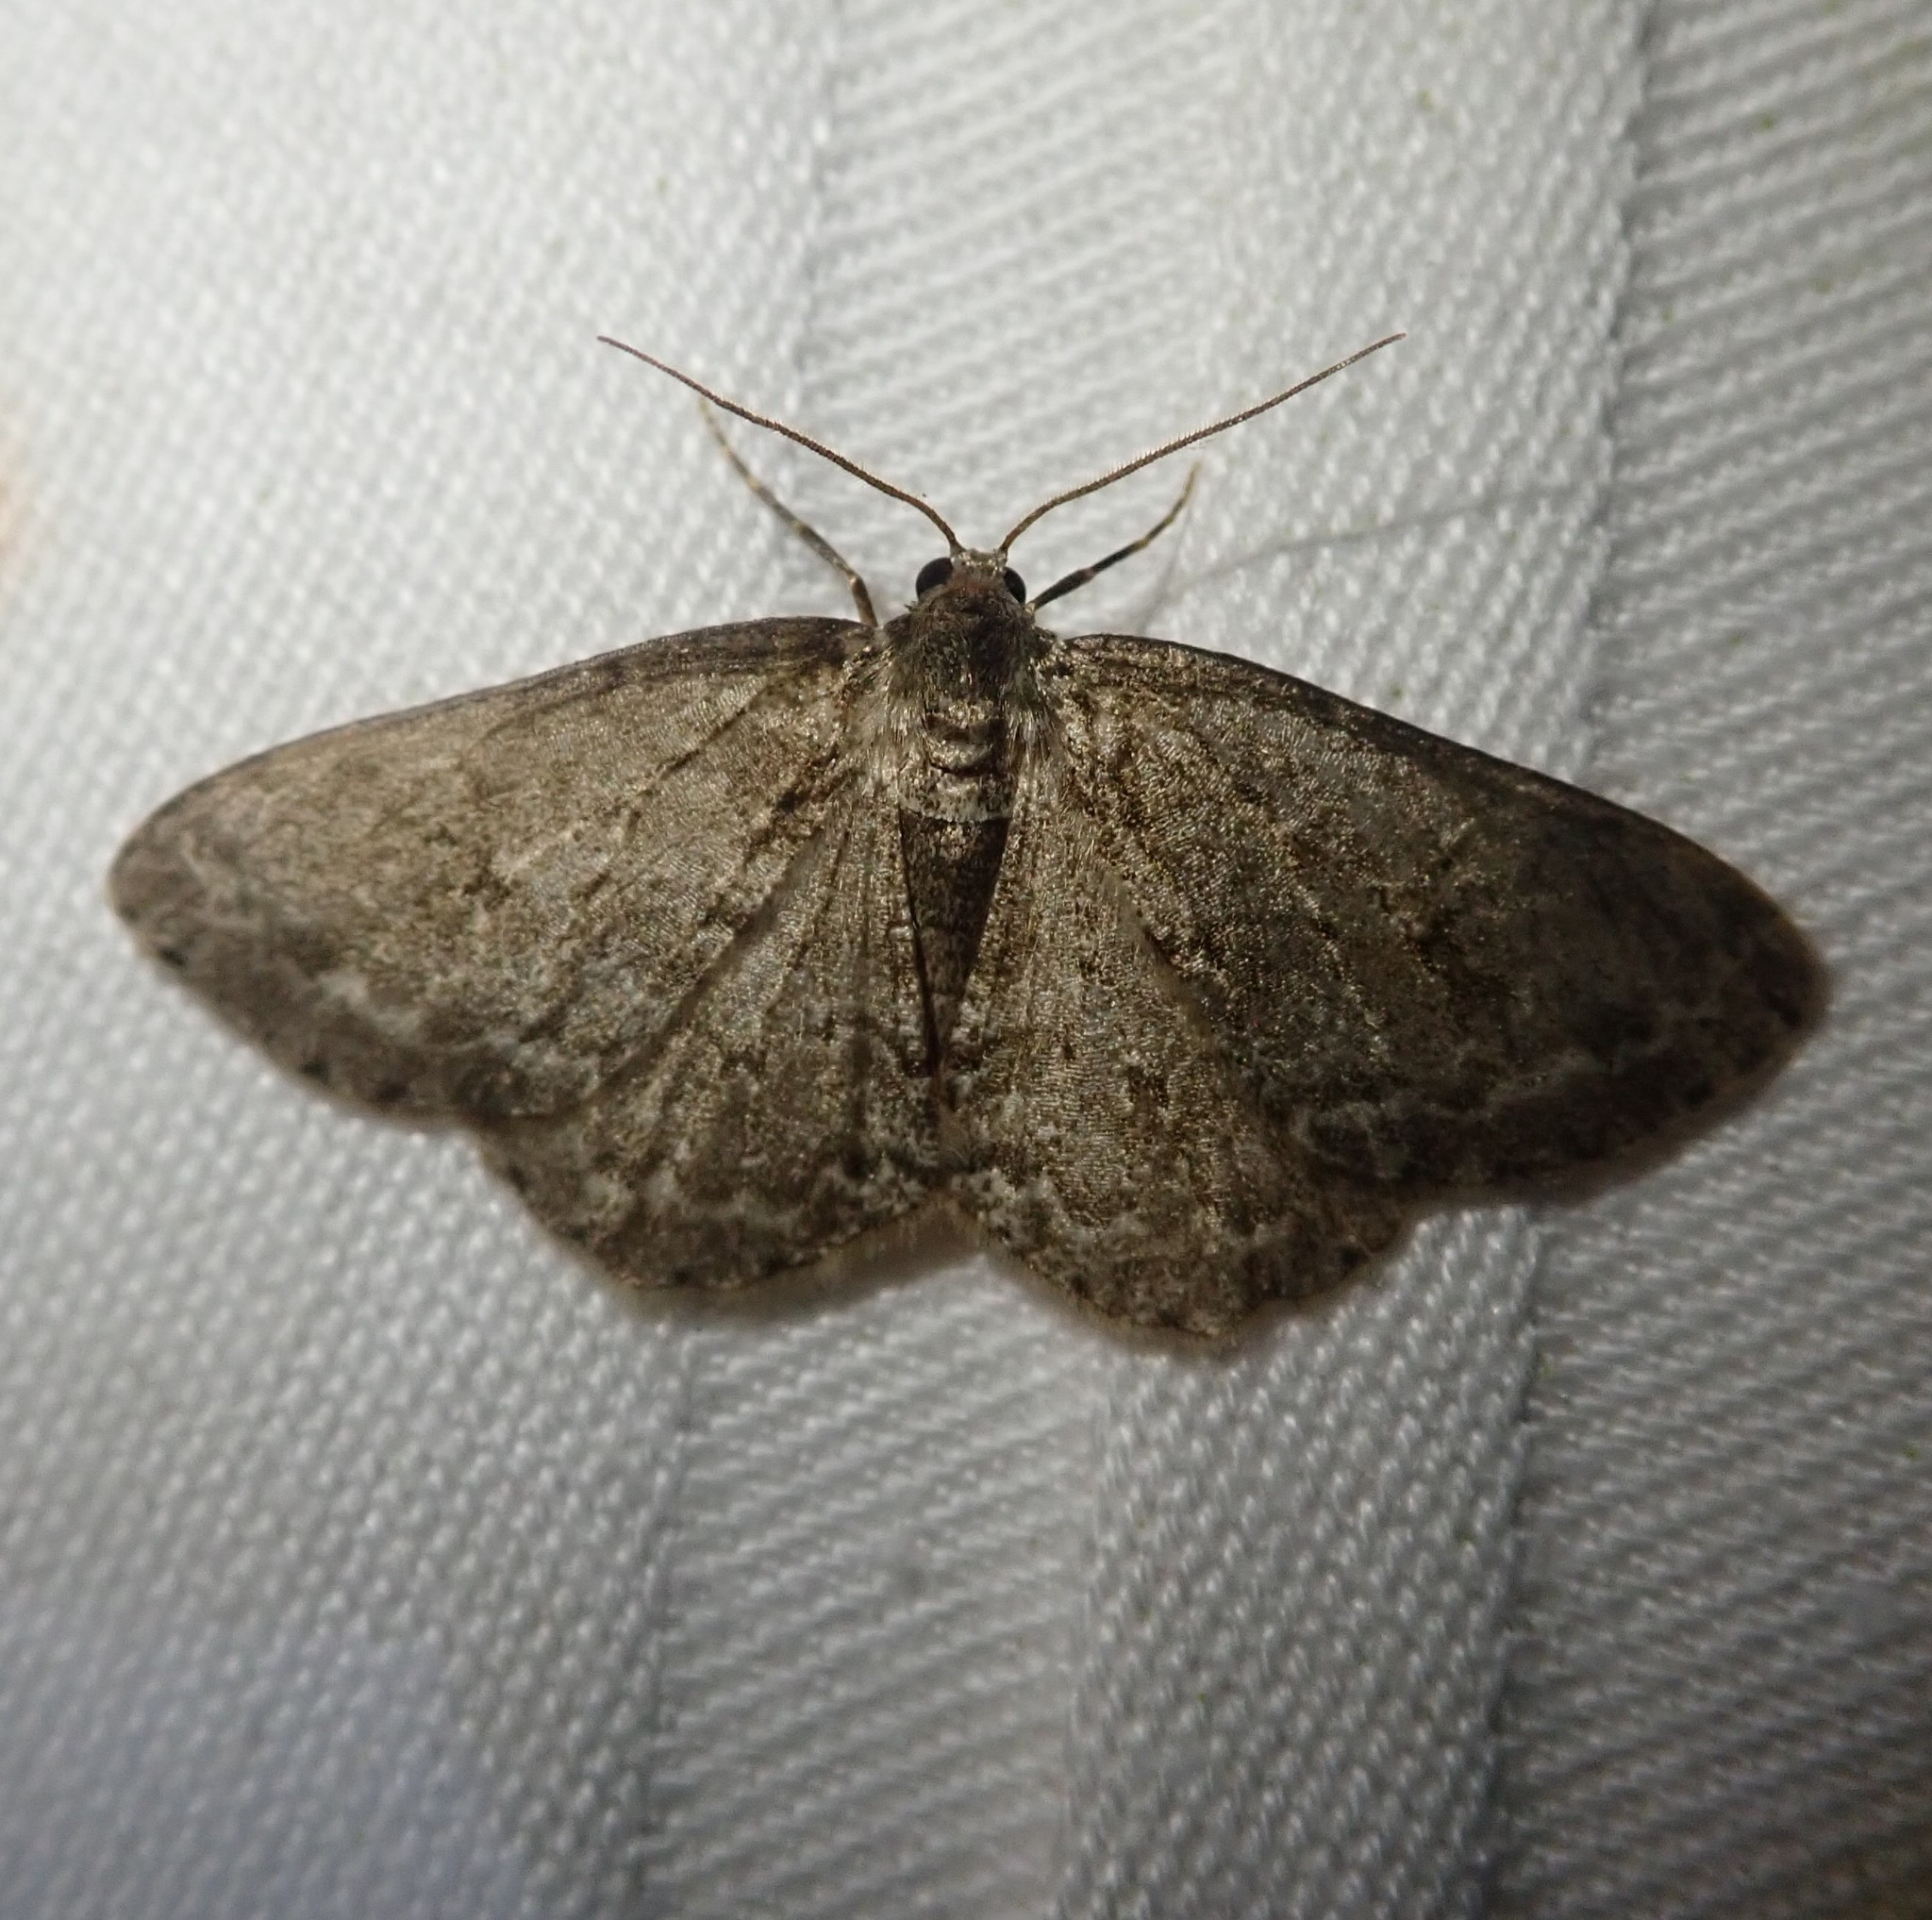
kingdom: Animalia
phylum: Arthropoda
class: Insecta
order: Lepidoptera
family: Geometridae
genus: Ectropis
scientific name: Ectropis crepuscularia
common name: Engrailed
